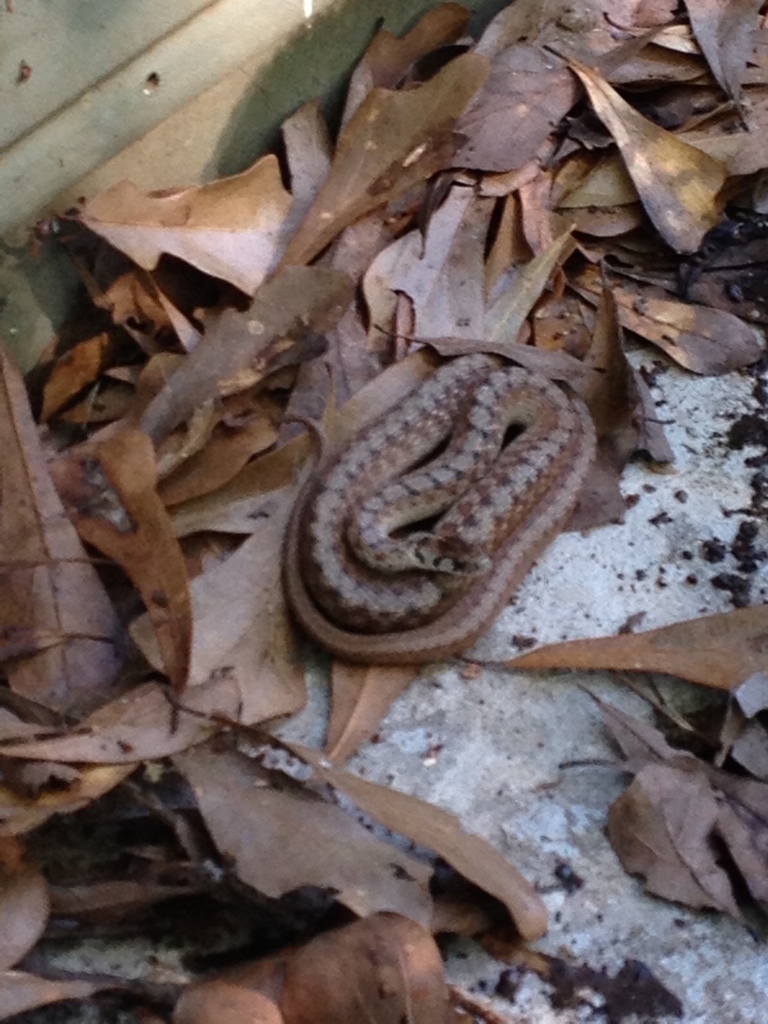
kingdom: Animalia
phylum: Chordata
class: Squamata
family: Colubridae
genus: Storeria
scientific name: Storeria dekayi
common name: (dekay’s) brown snake
